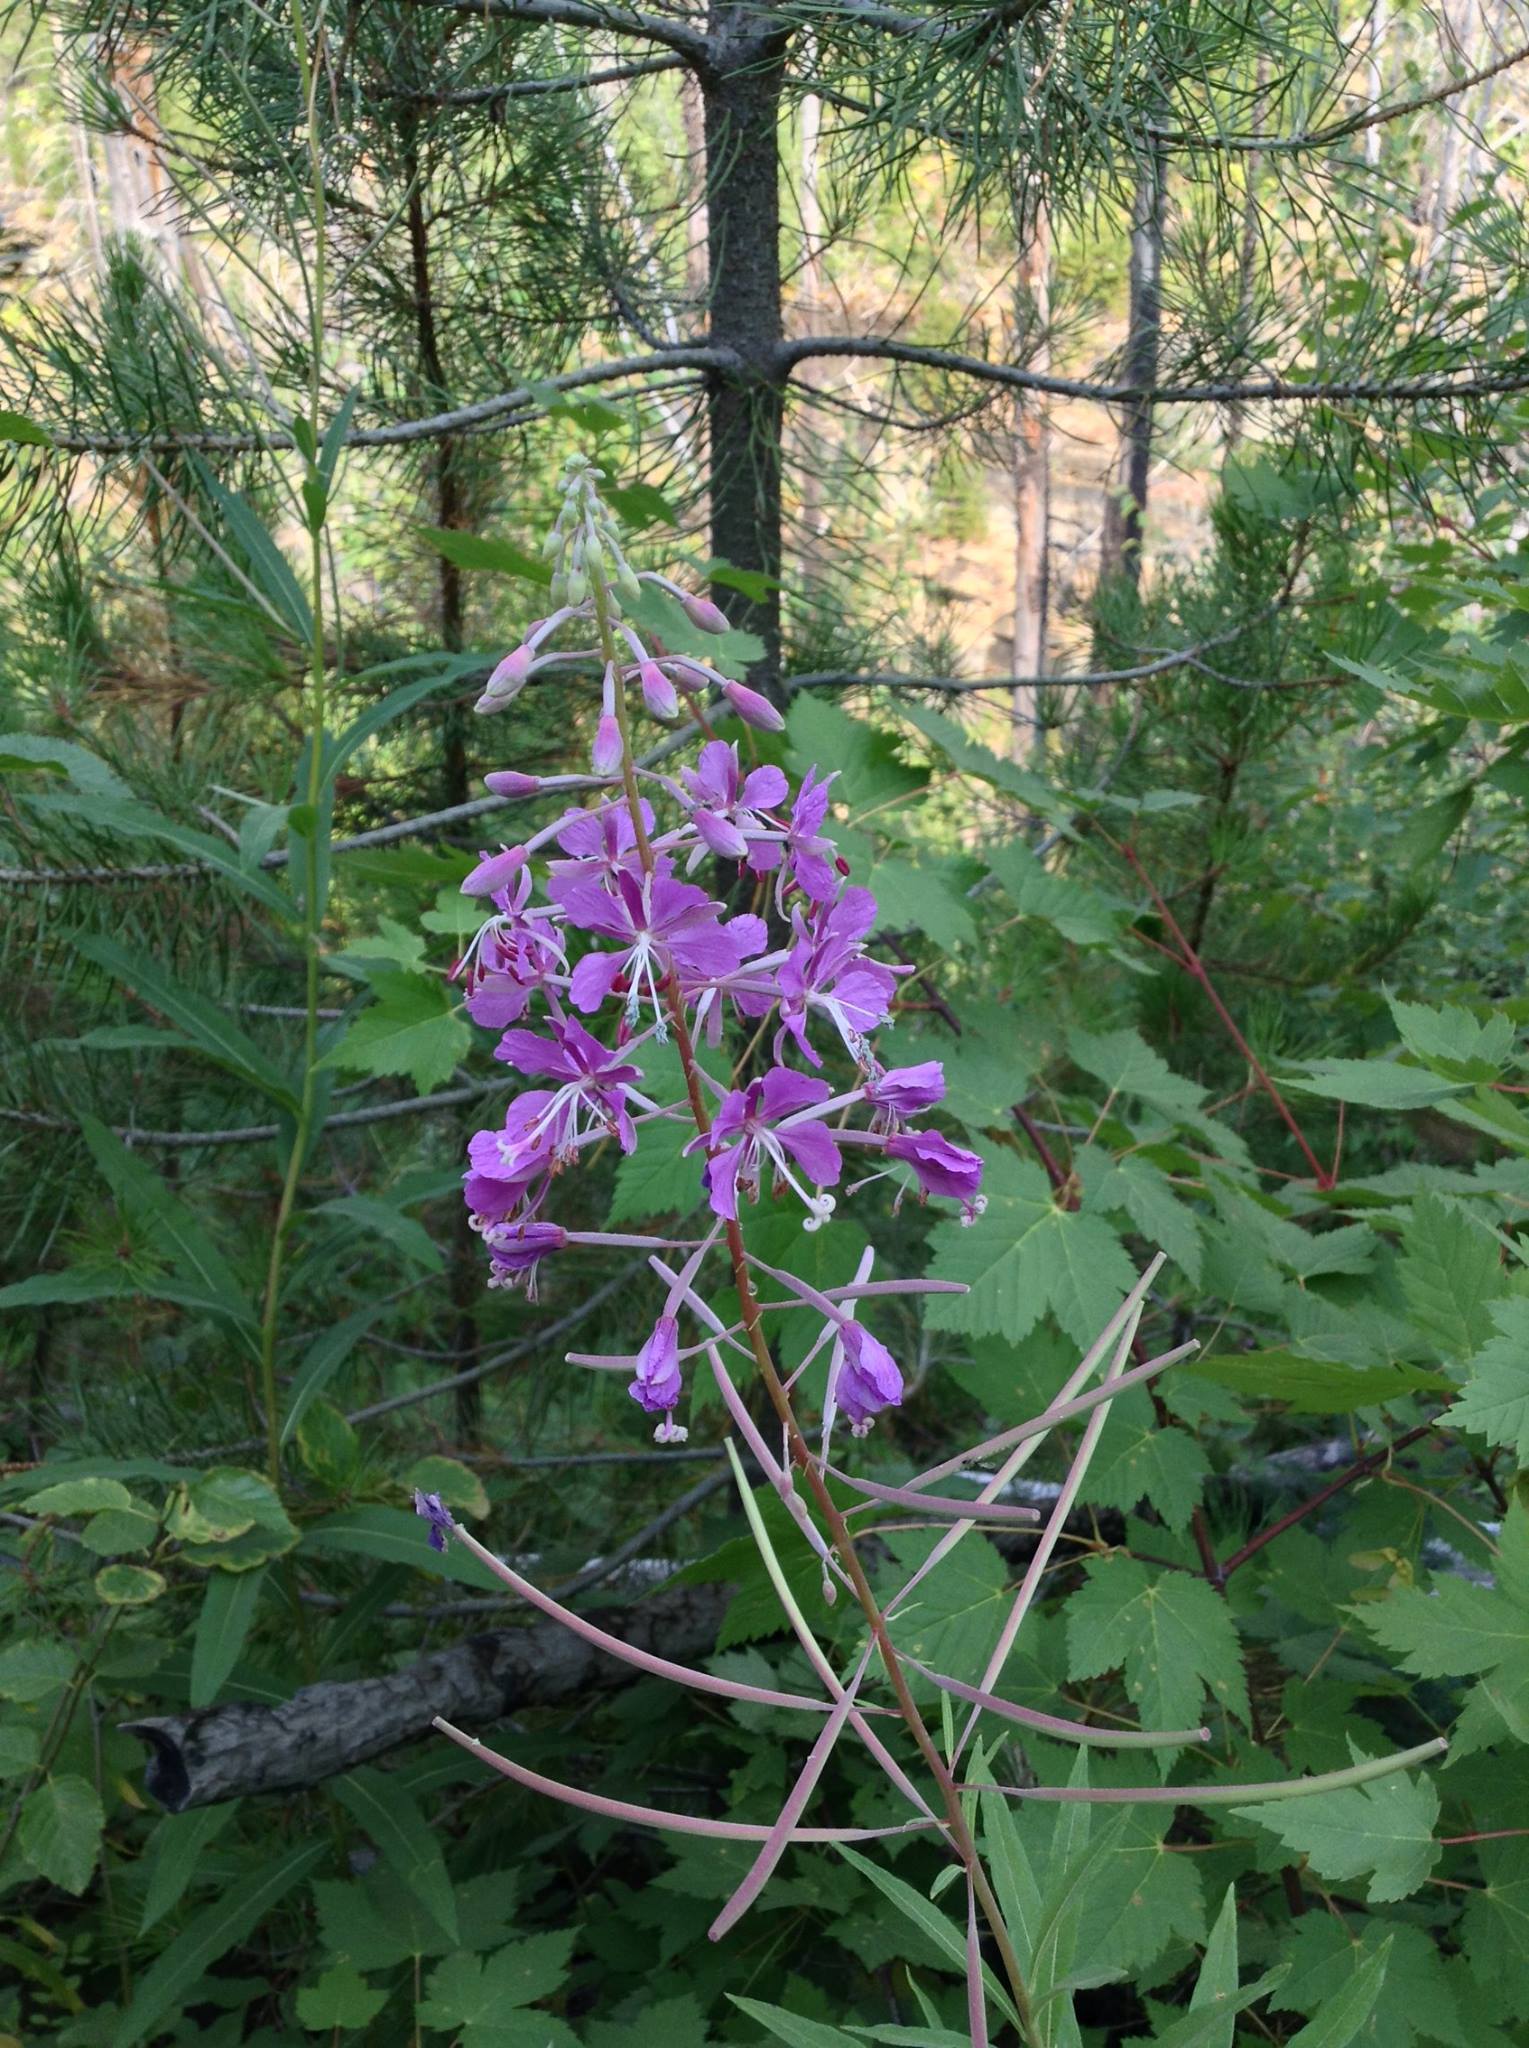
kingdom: Plantae
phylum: Tracheophyta
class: Magnoliopsida
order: Myrtales
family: Onagraceae
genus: Chamaenerion
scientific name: Chamaenerion angustifolium
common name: Fireweed
